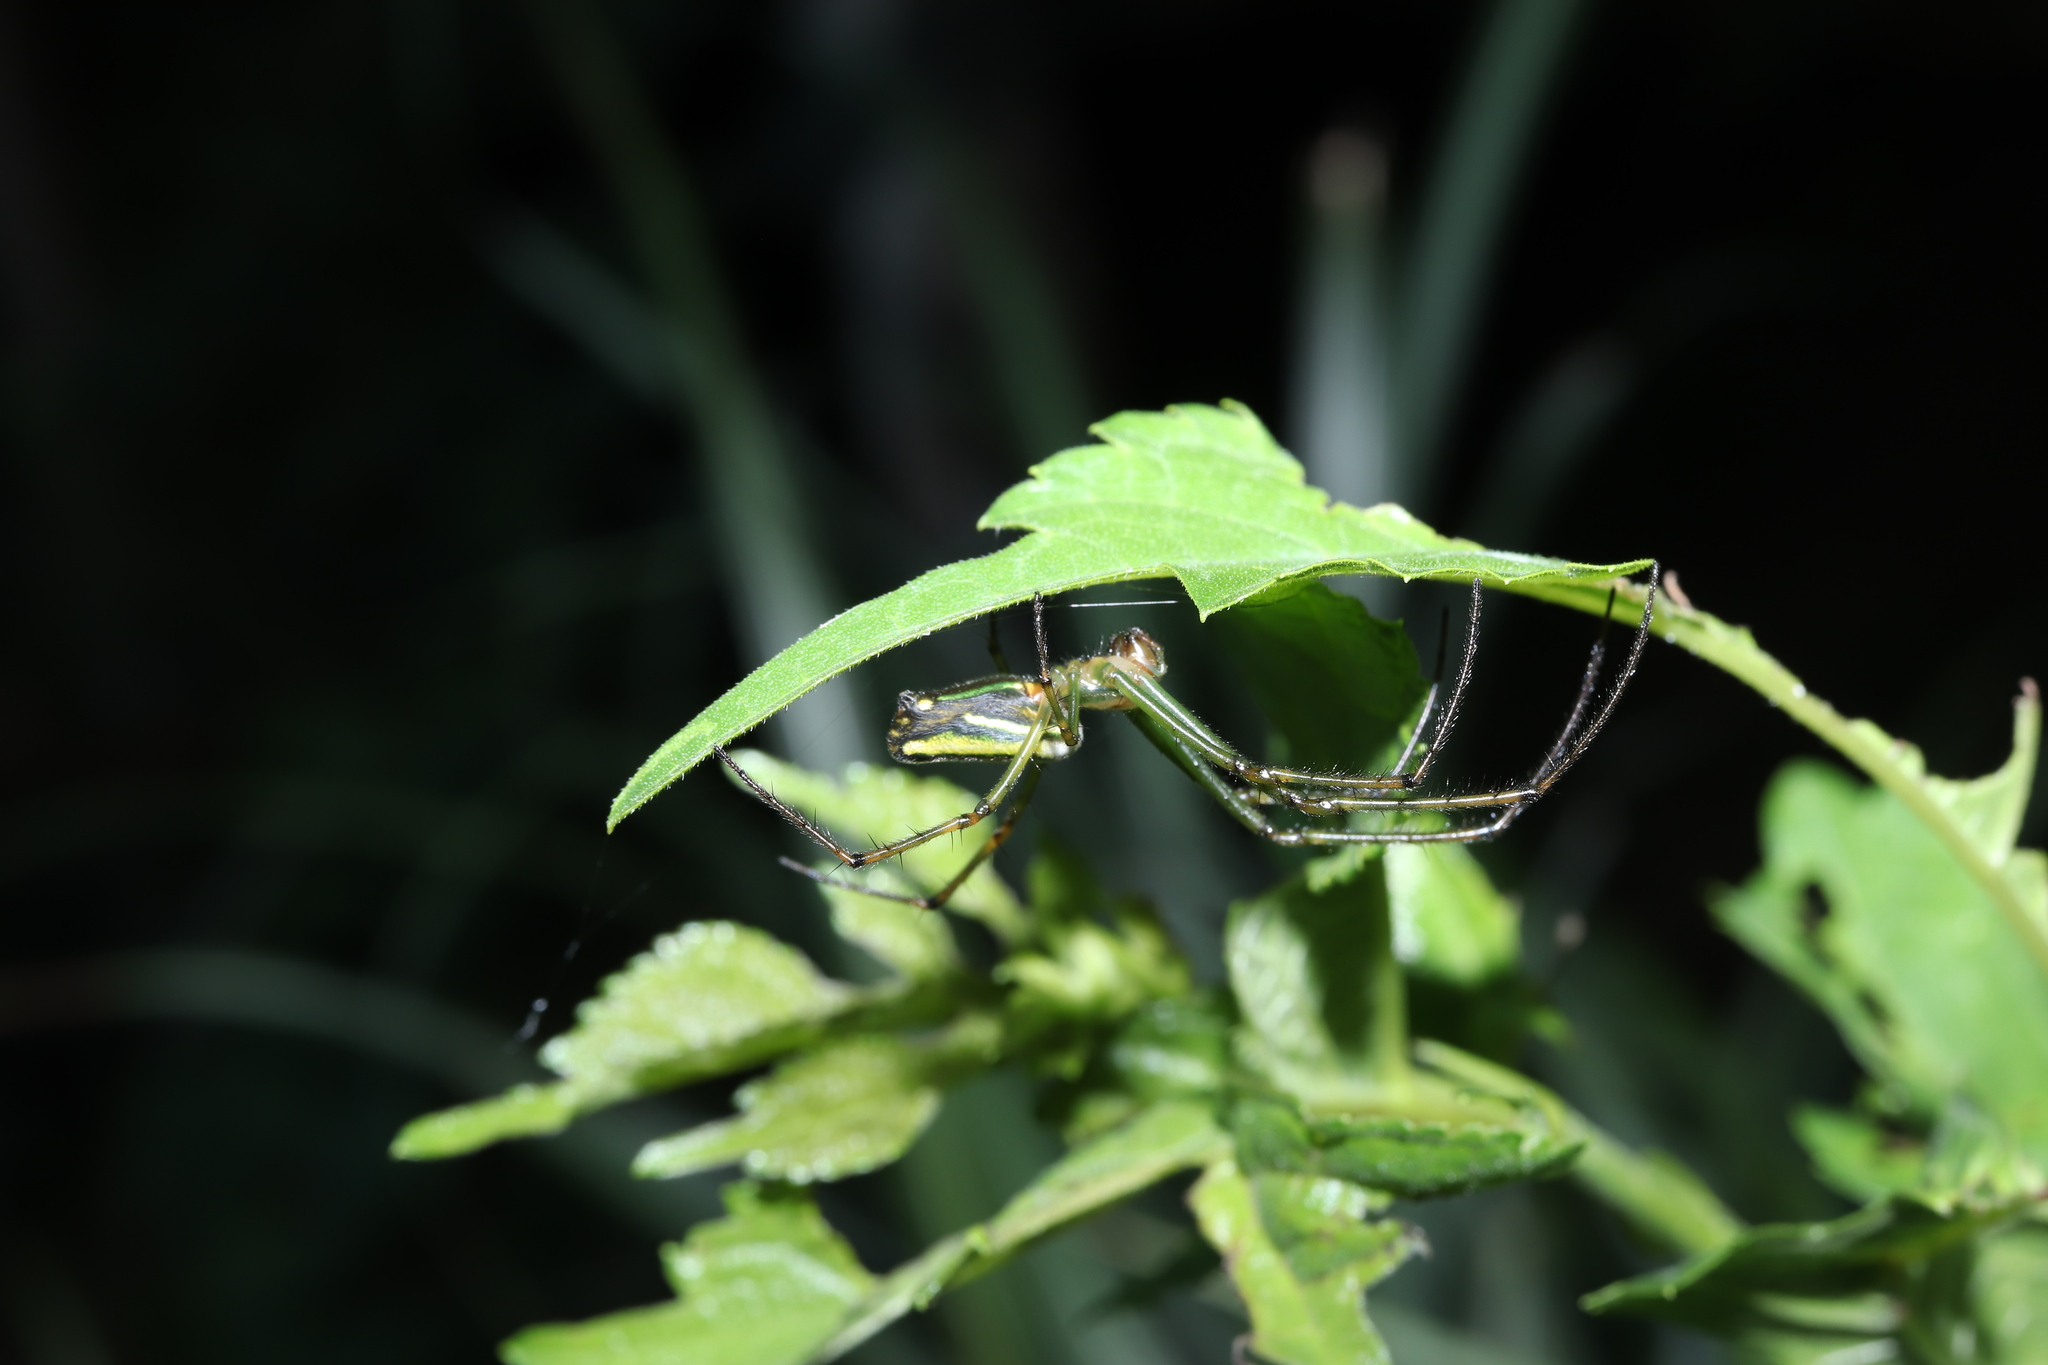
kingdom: Animalia
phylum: Arthropoda
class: Arachnida
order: Araneae
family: Tetragnathidae
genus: Leucauge
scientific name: Leucauge celebesiana
